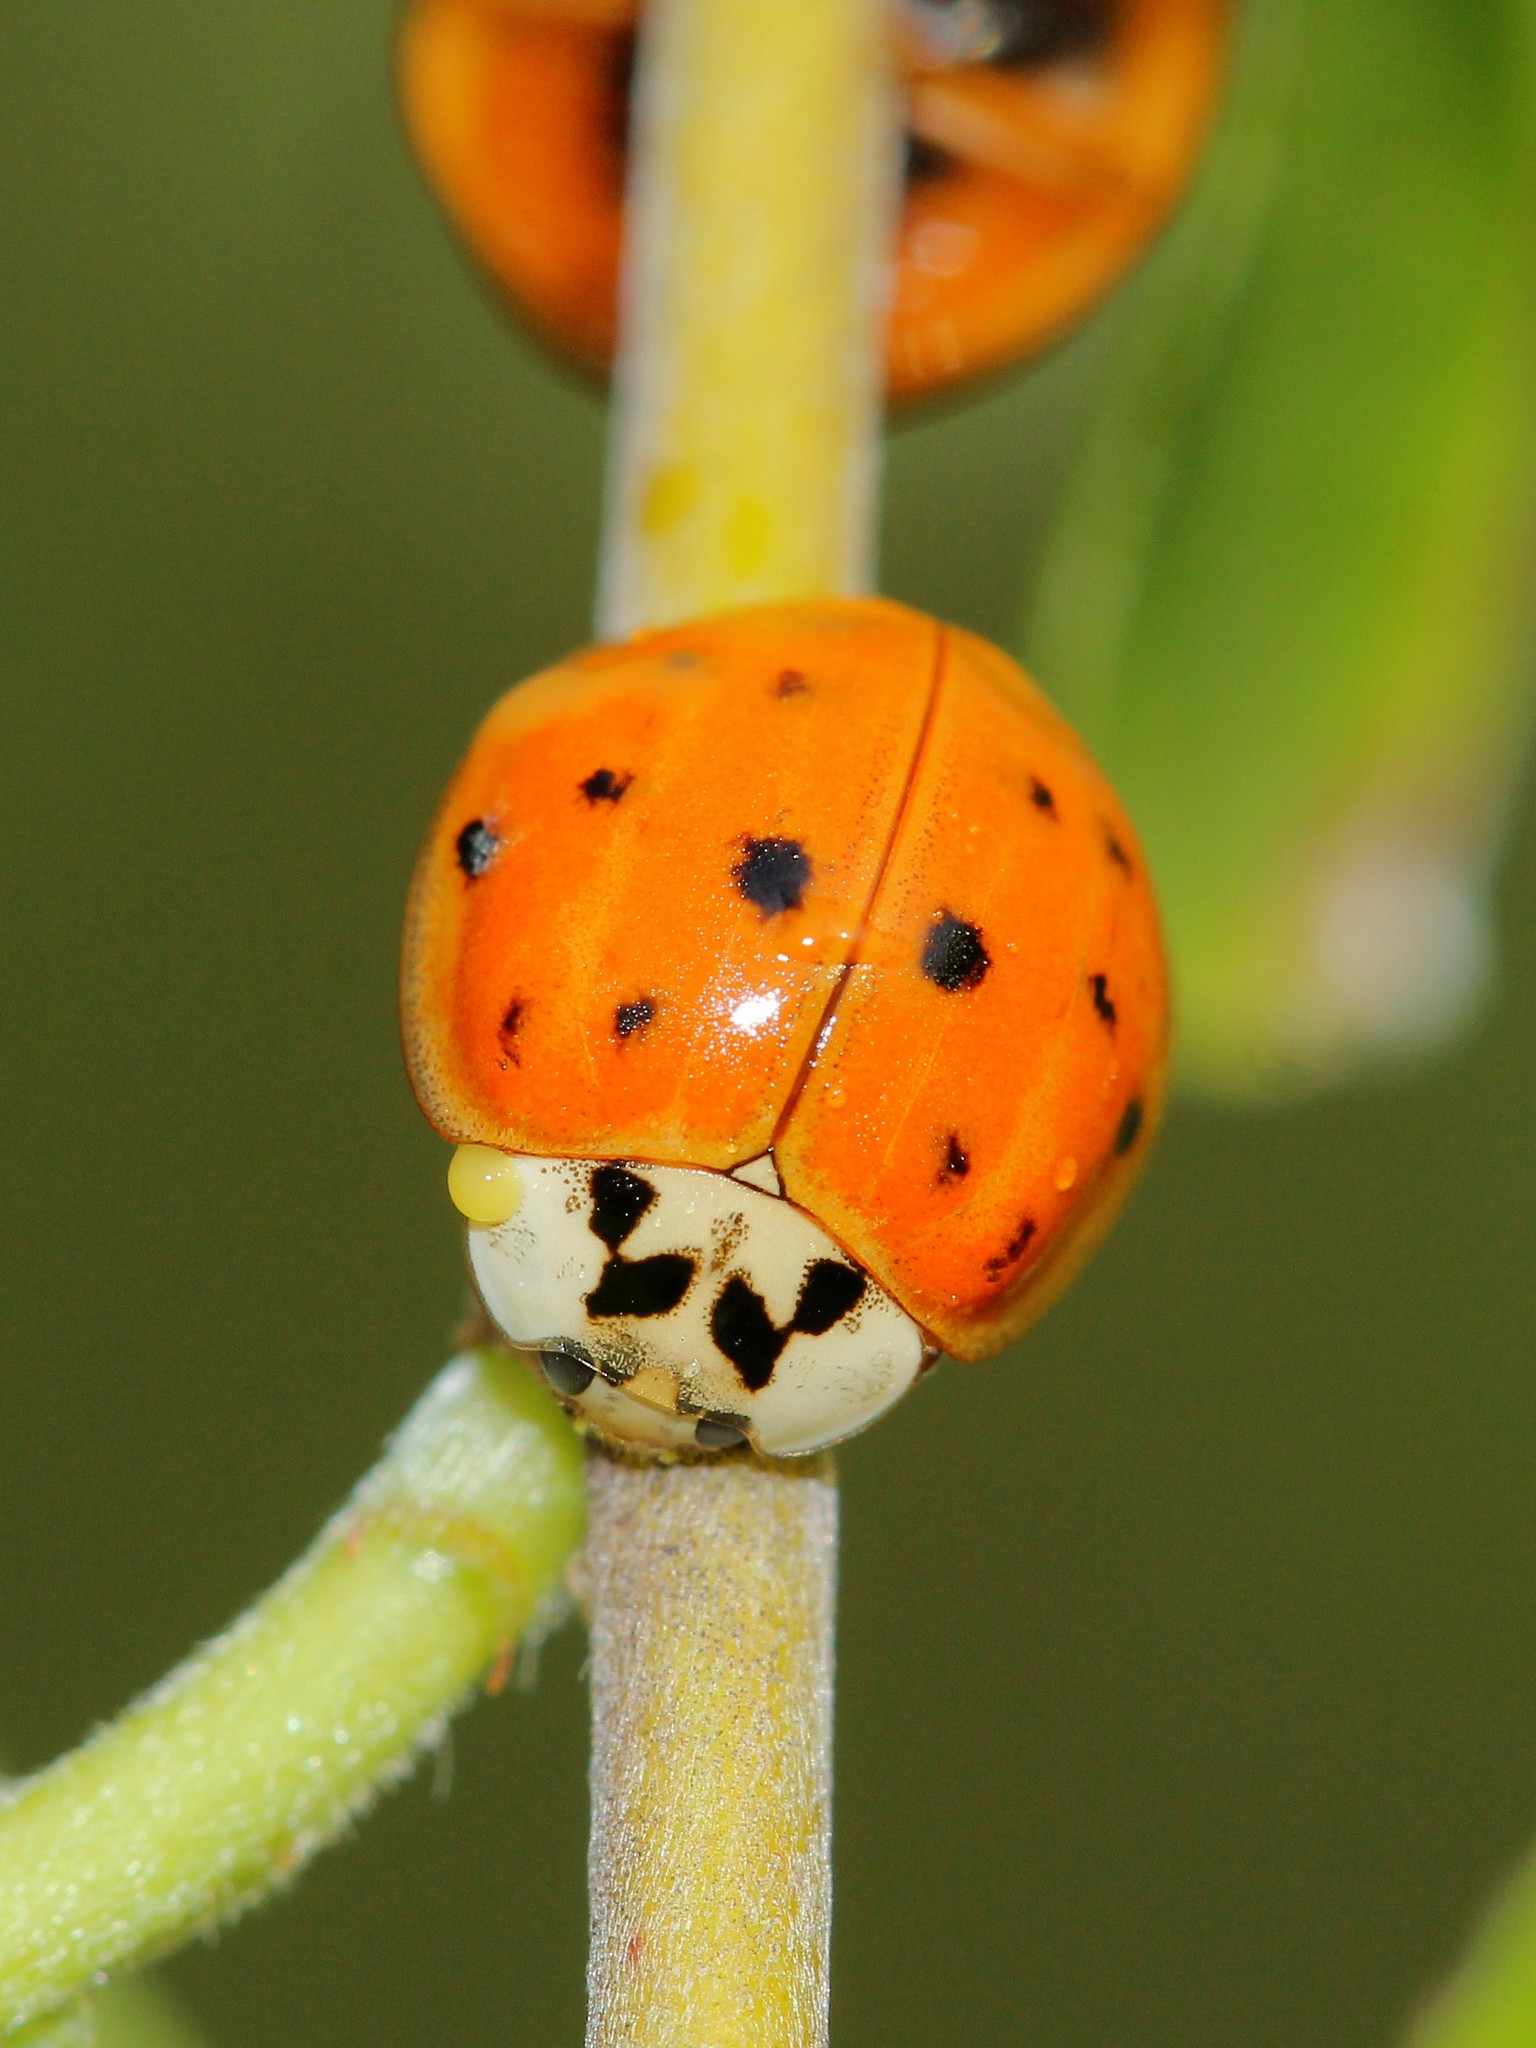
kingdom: Animalia
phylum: Arthropoda
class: Insecta
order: Coleoptera
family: Coccinellidae
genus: Harmonia
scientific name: Harmonia axyridis
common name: Harlequin ladybird
